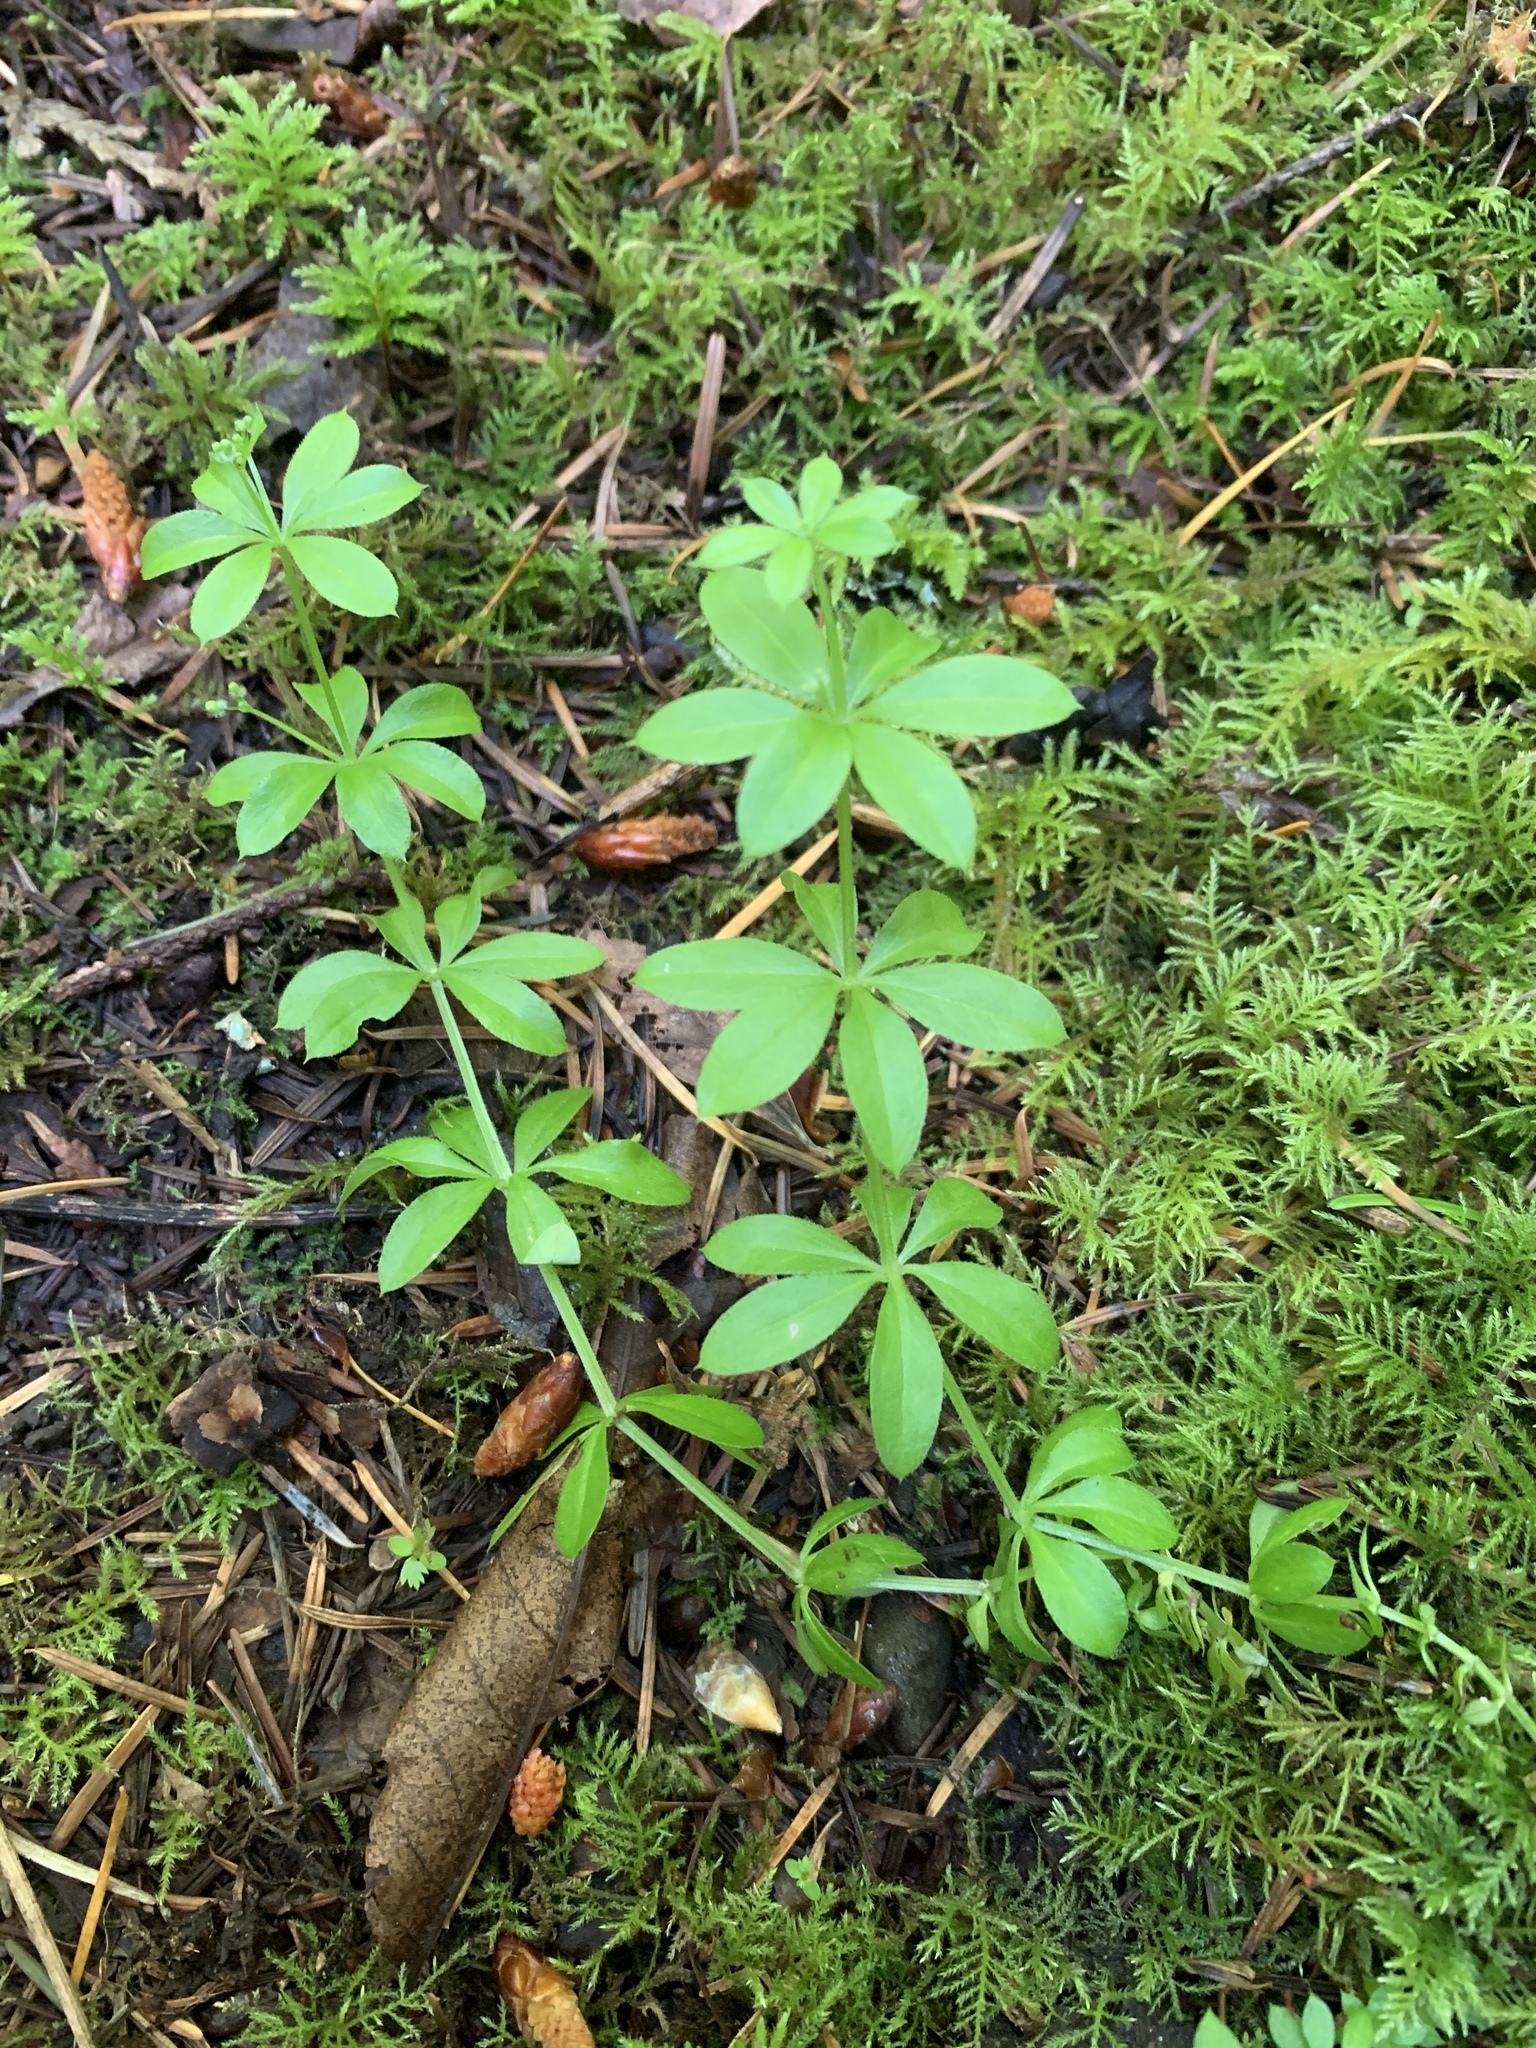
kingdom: Plantae
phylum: Tracheophyta
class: Magnoliopsida
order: Gentianales
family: Rubiaceae
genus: Galium
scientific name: Galium triflorum
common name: Fragrant bedstraw
